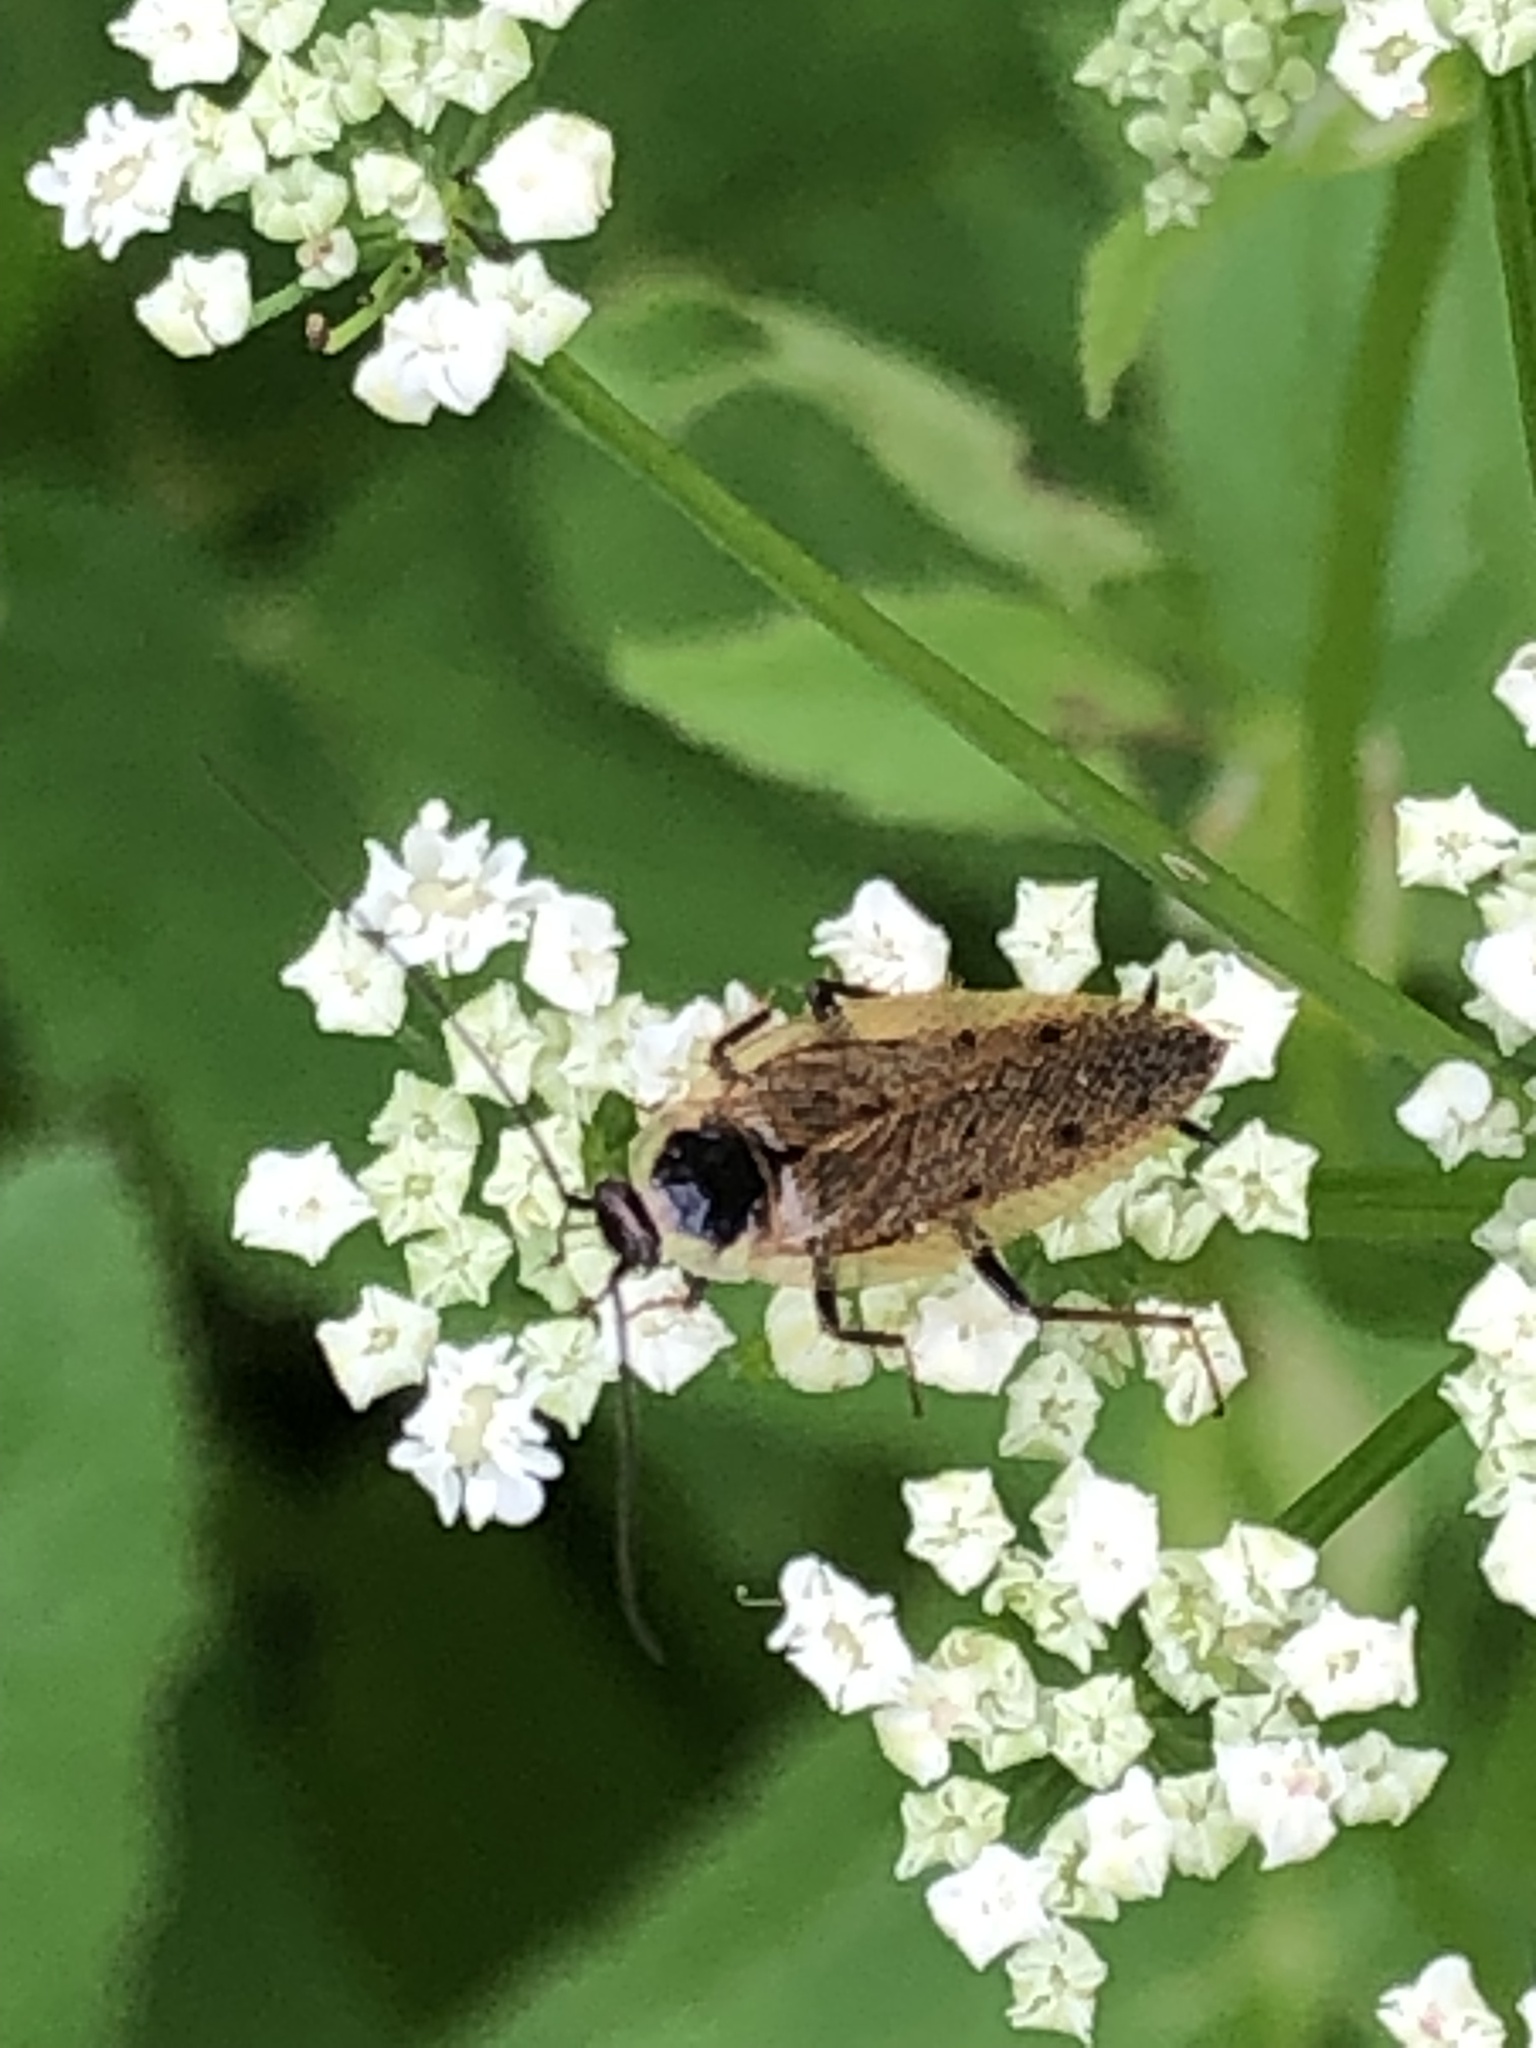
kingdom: Animalia
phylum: Arthropoda
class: Insecta
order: Blattodea
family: Ectobiidae
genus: Ectobius
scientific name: Ectobius lapponicus
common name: Dusky cockroach
